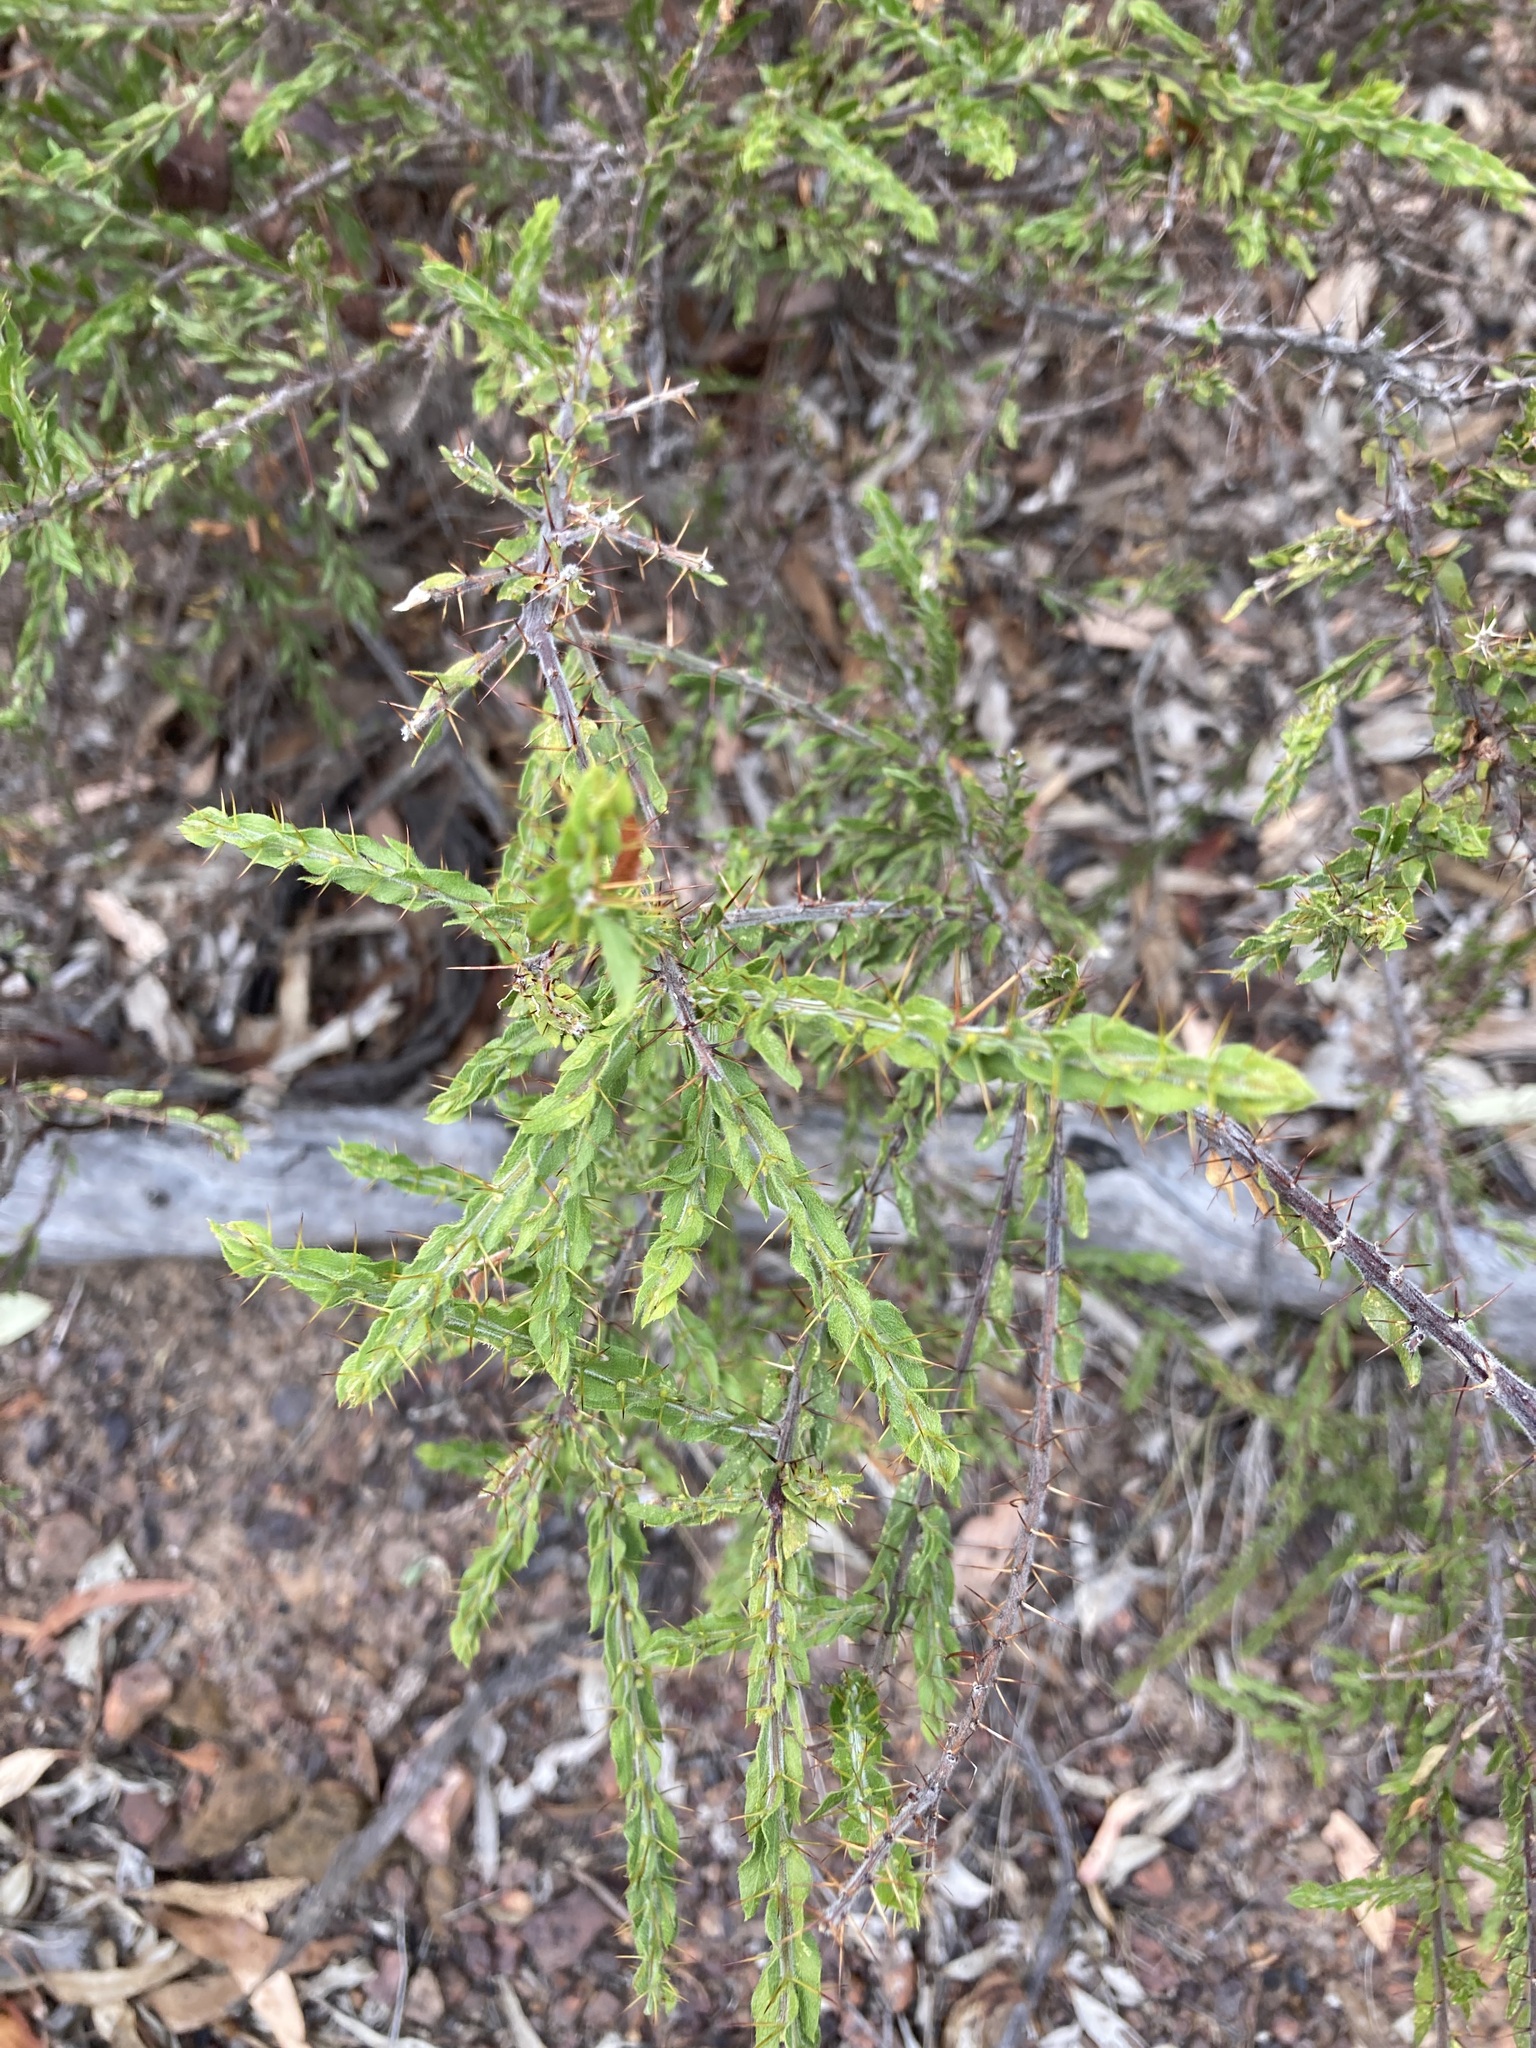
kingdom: Plantae
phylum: Tracheophyta
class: Magnoliopsida
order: Fabales
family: Fabaceae
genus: Acacia
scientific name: Acacia paradoxa
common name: Paradox acacia
